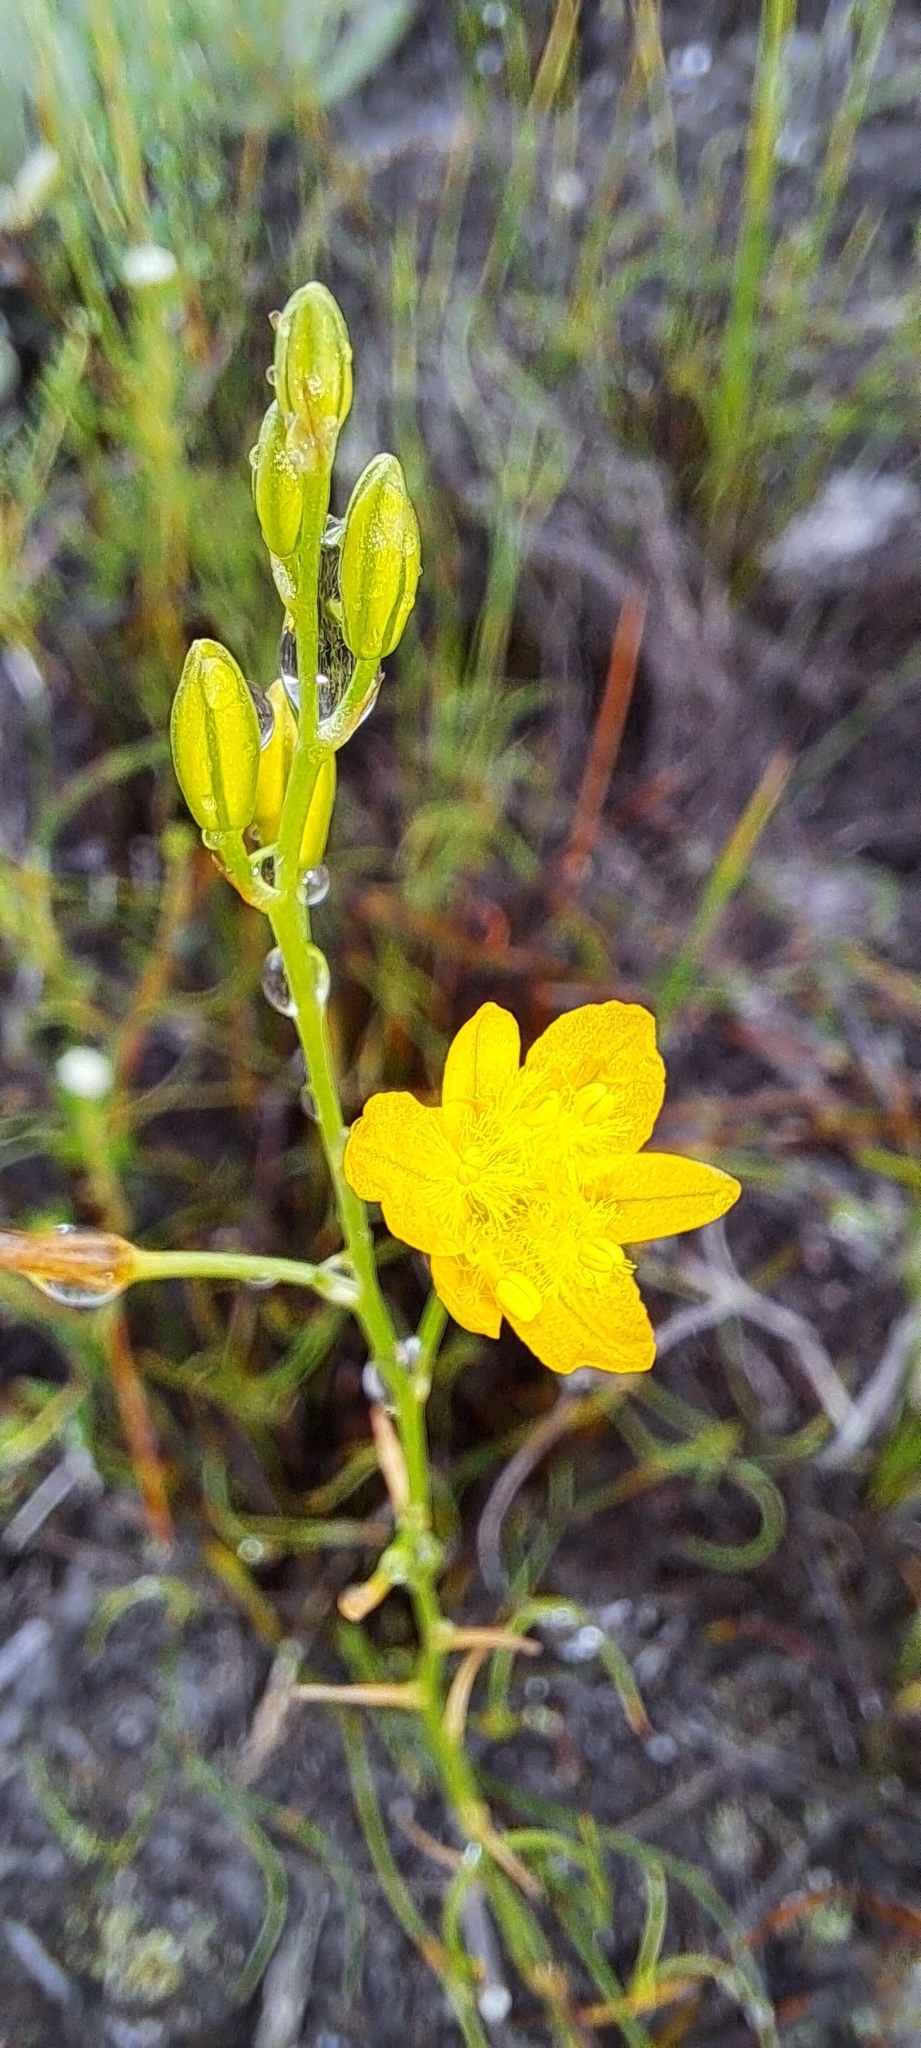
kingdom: Plantae
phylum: Tracheophyta
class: Liliopsida
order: Asparagales
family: Asphodelaceae
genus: Bulbine
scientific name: Bulbine favosa
